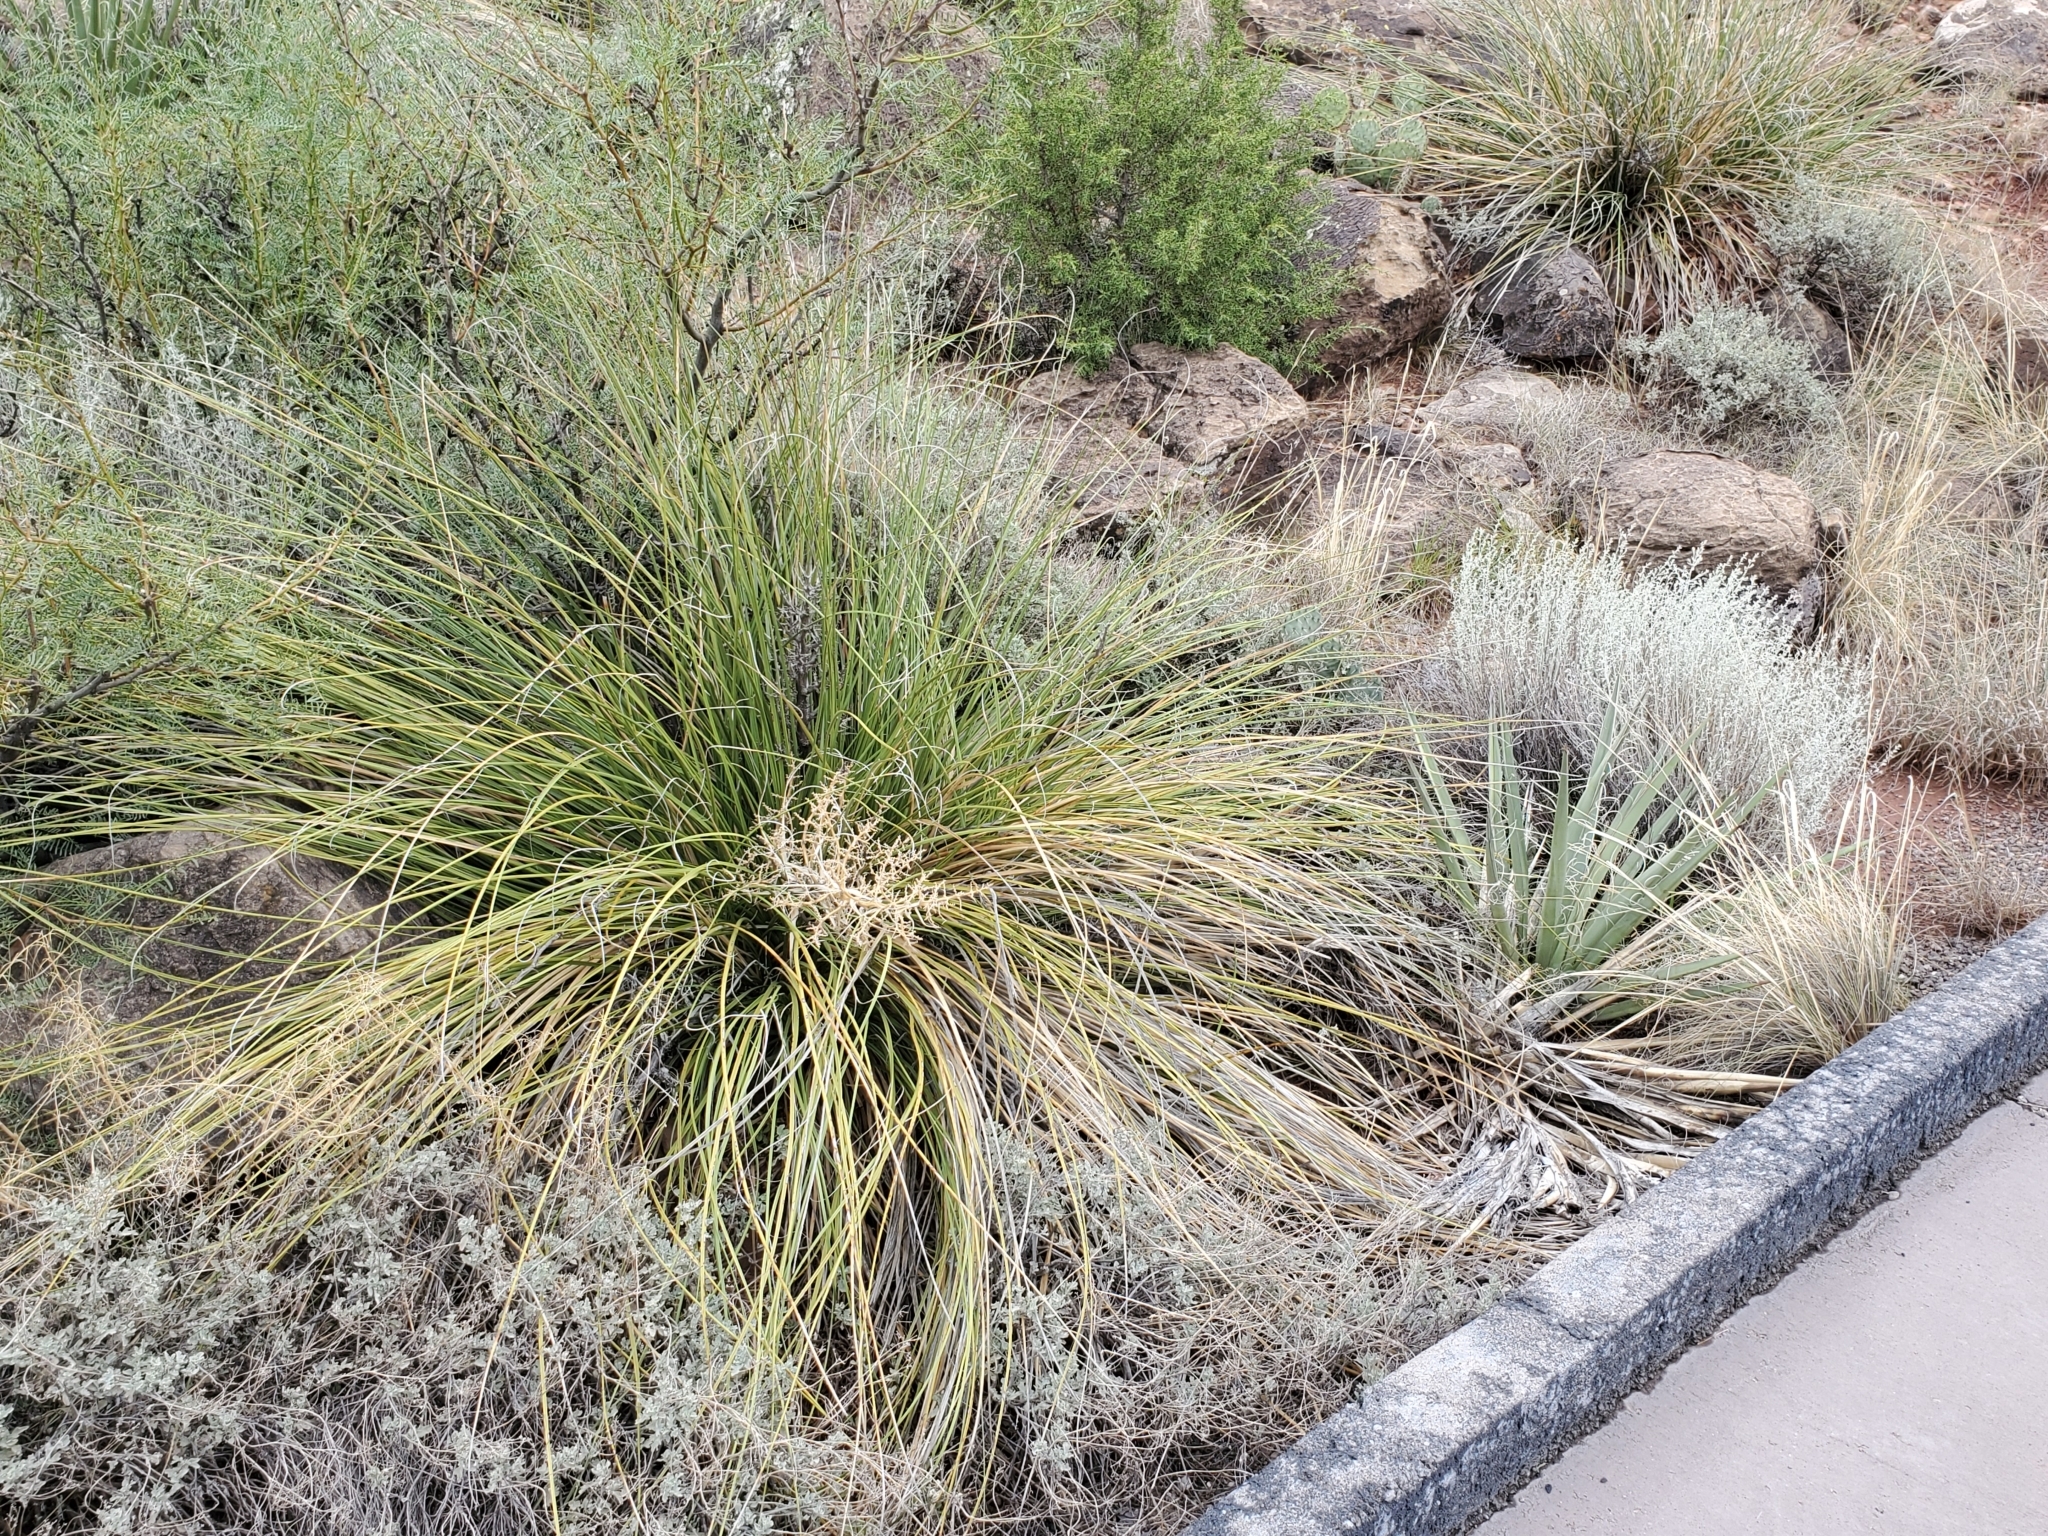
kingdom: Plantae
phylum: Tracheophyta
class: Liliopsida
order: Asparagales
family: Asparagaceae
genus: Nolina
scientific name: Nolina texana
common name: Texas sacahuiste
